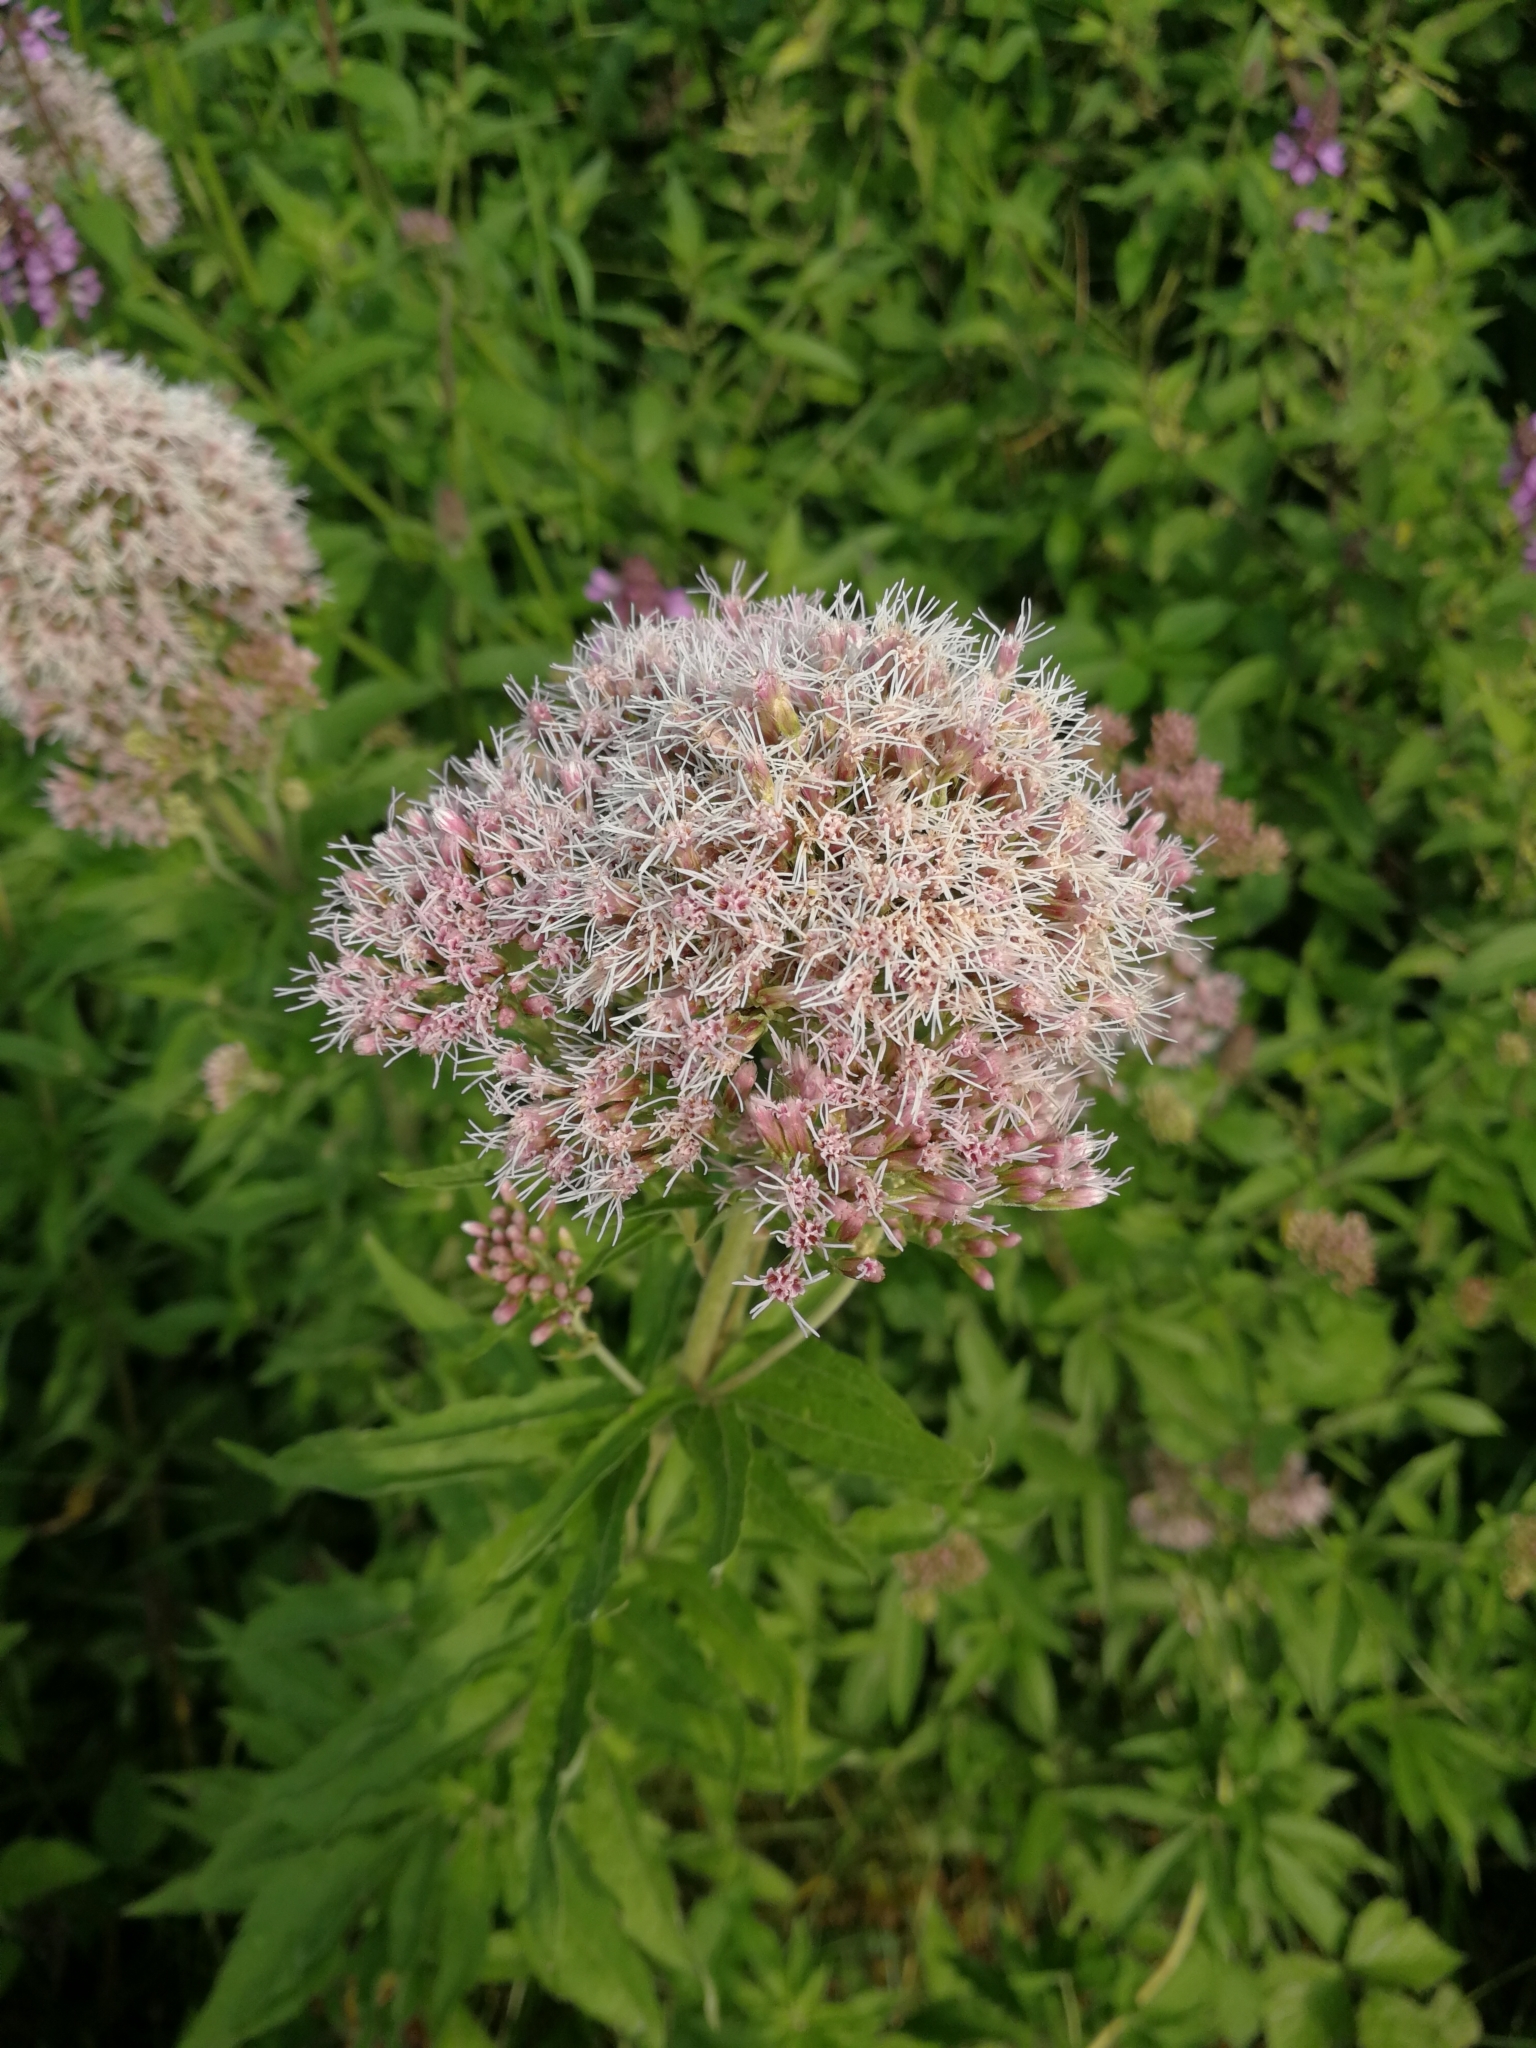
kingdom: Plantae
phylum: Tracheophyta
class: Magnoliopsida
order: Asterales
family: Asteraceae
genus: Eupatorium
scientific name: Eupatorium cannabinum
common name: Hemp-agrimony
